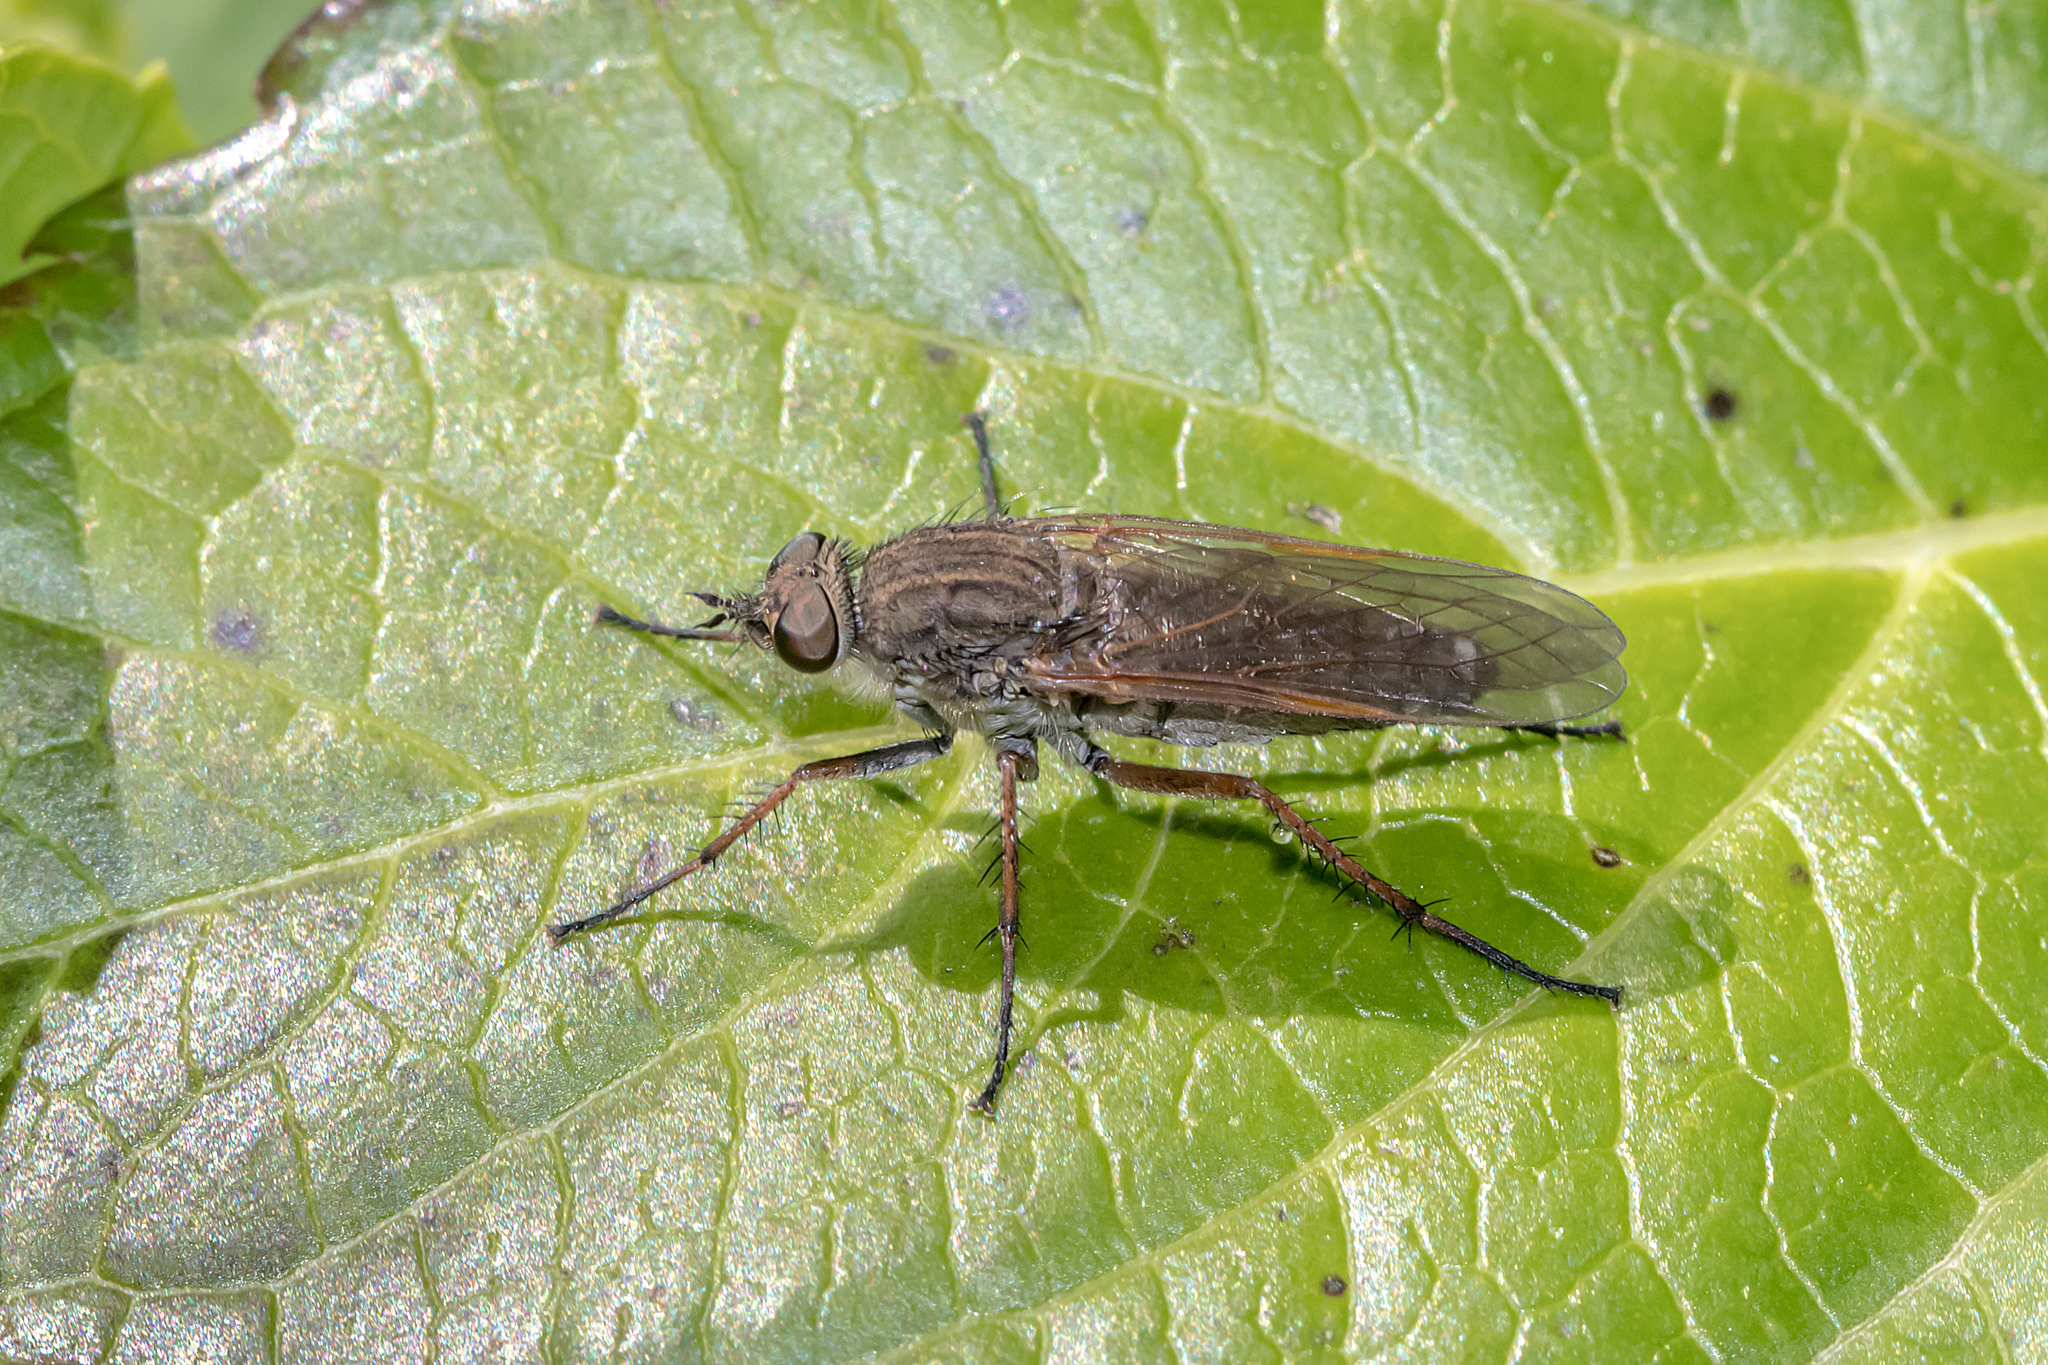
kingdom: Animalia
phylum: Arthropoda
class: Insecta
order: Diptera
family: Therevidae
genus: Anabarhynchus
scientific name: Anabarhynchus montanus
